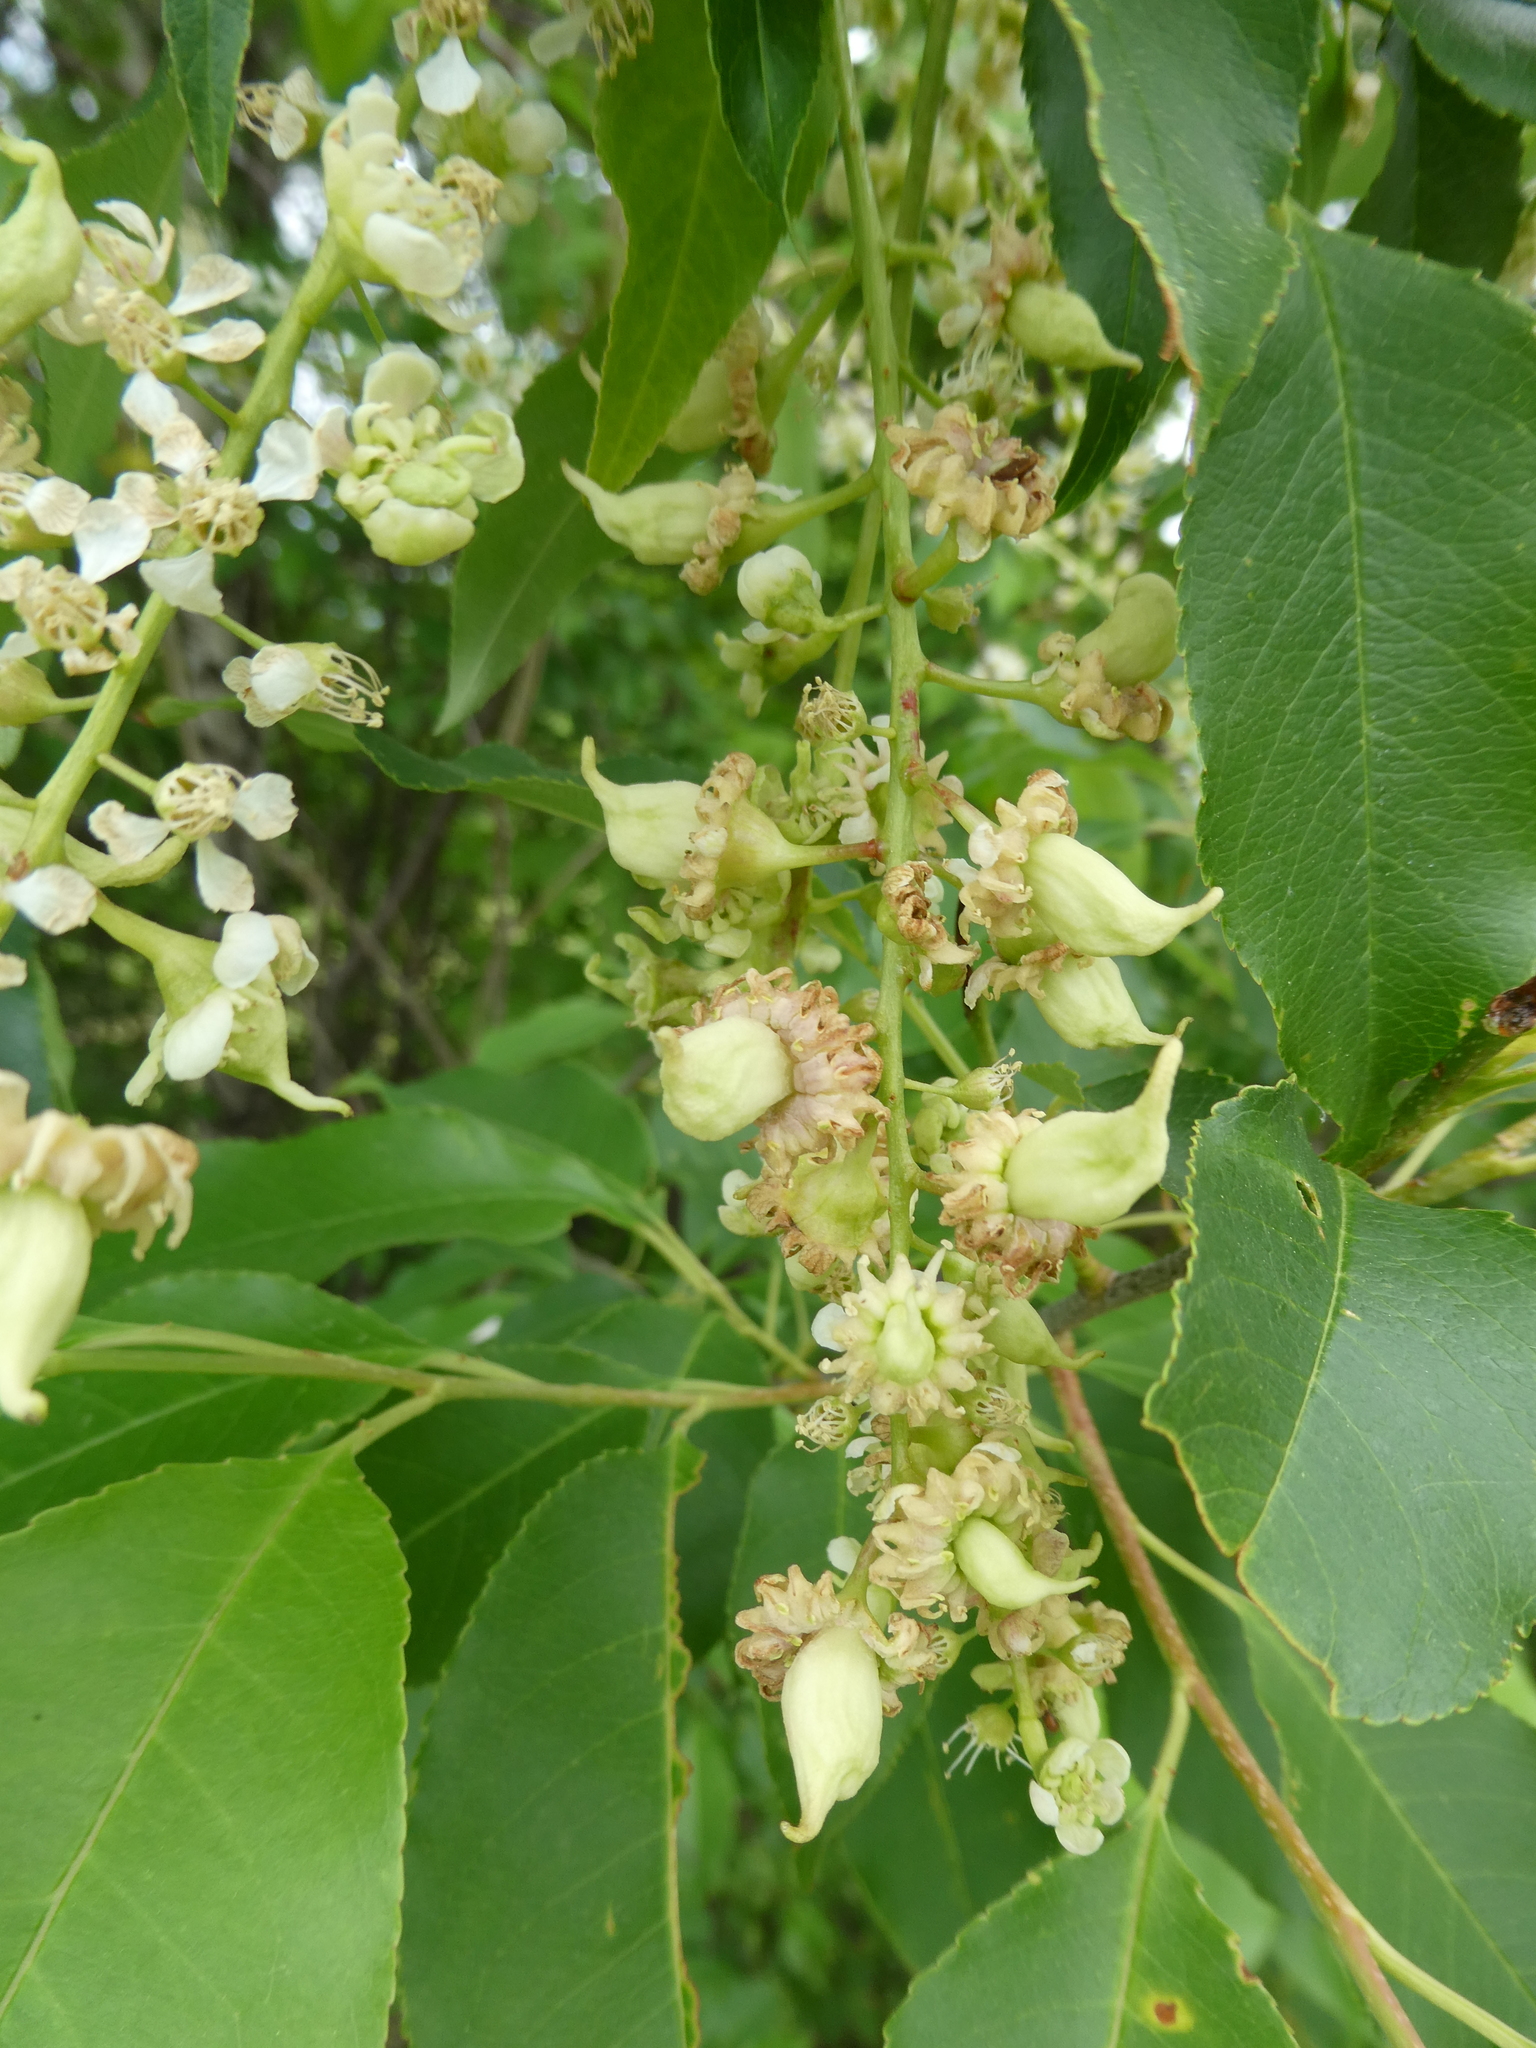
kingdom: Fungi
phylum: Ascomycota
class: Taphrinomycetes
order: Taphrinales
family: Taphrinaceae
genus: Taphrina
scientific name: Taphrina farlowii
